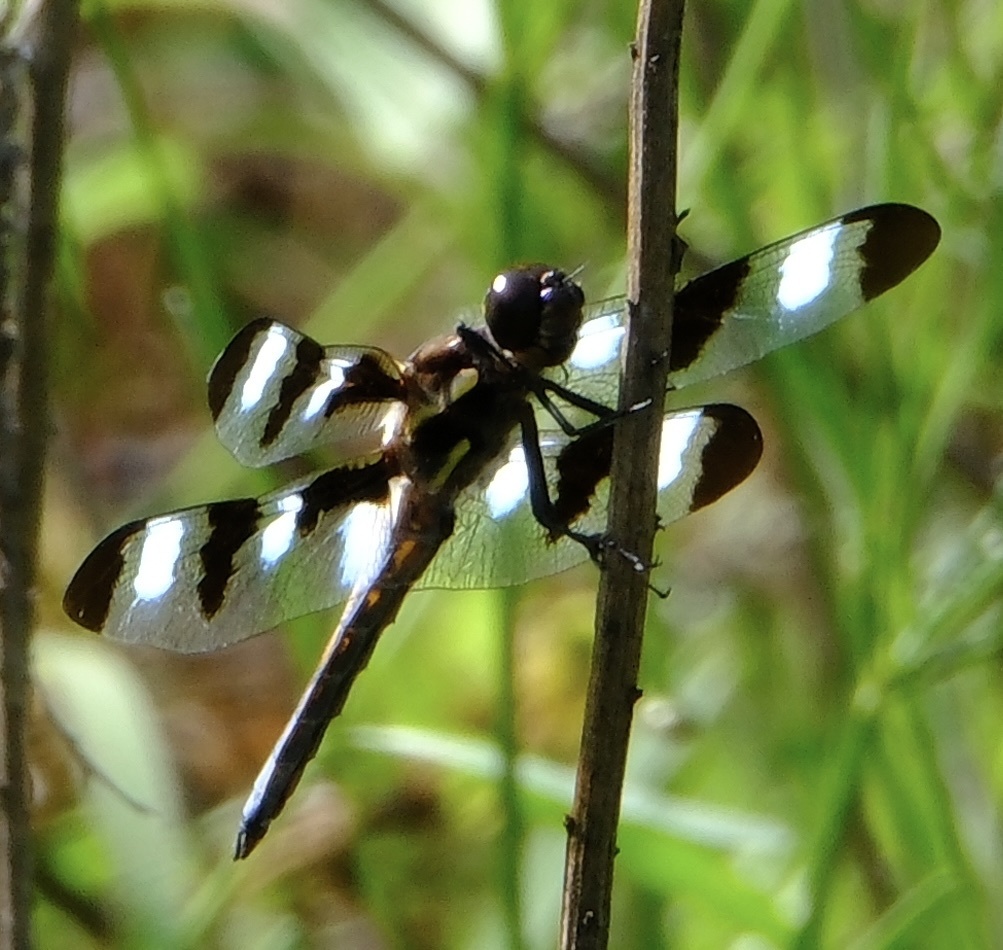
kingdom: Animalia
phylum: Arthropoda
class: Insecta
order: Odonata
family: Libellulidae
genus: Libellula
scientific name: Libellula pulchella
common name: Twelve-spotted skimmer
